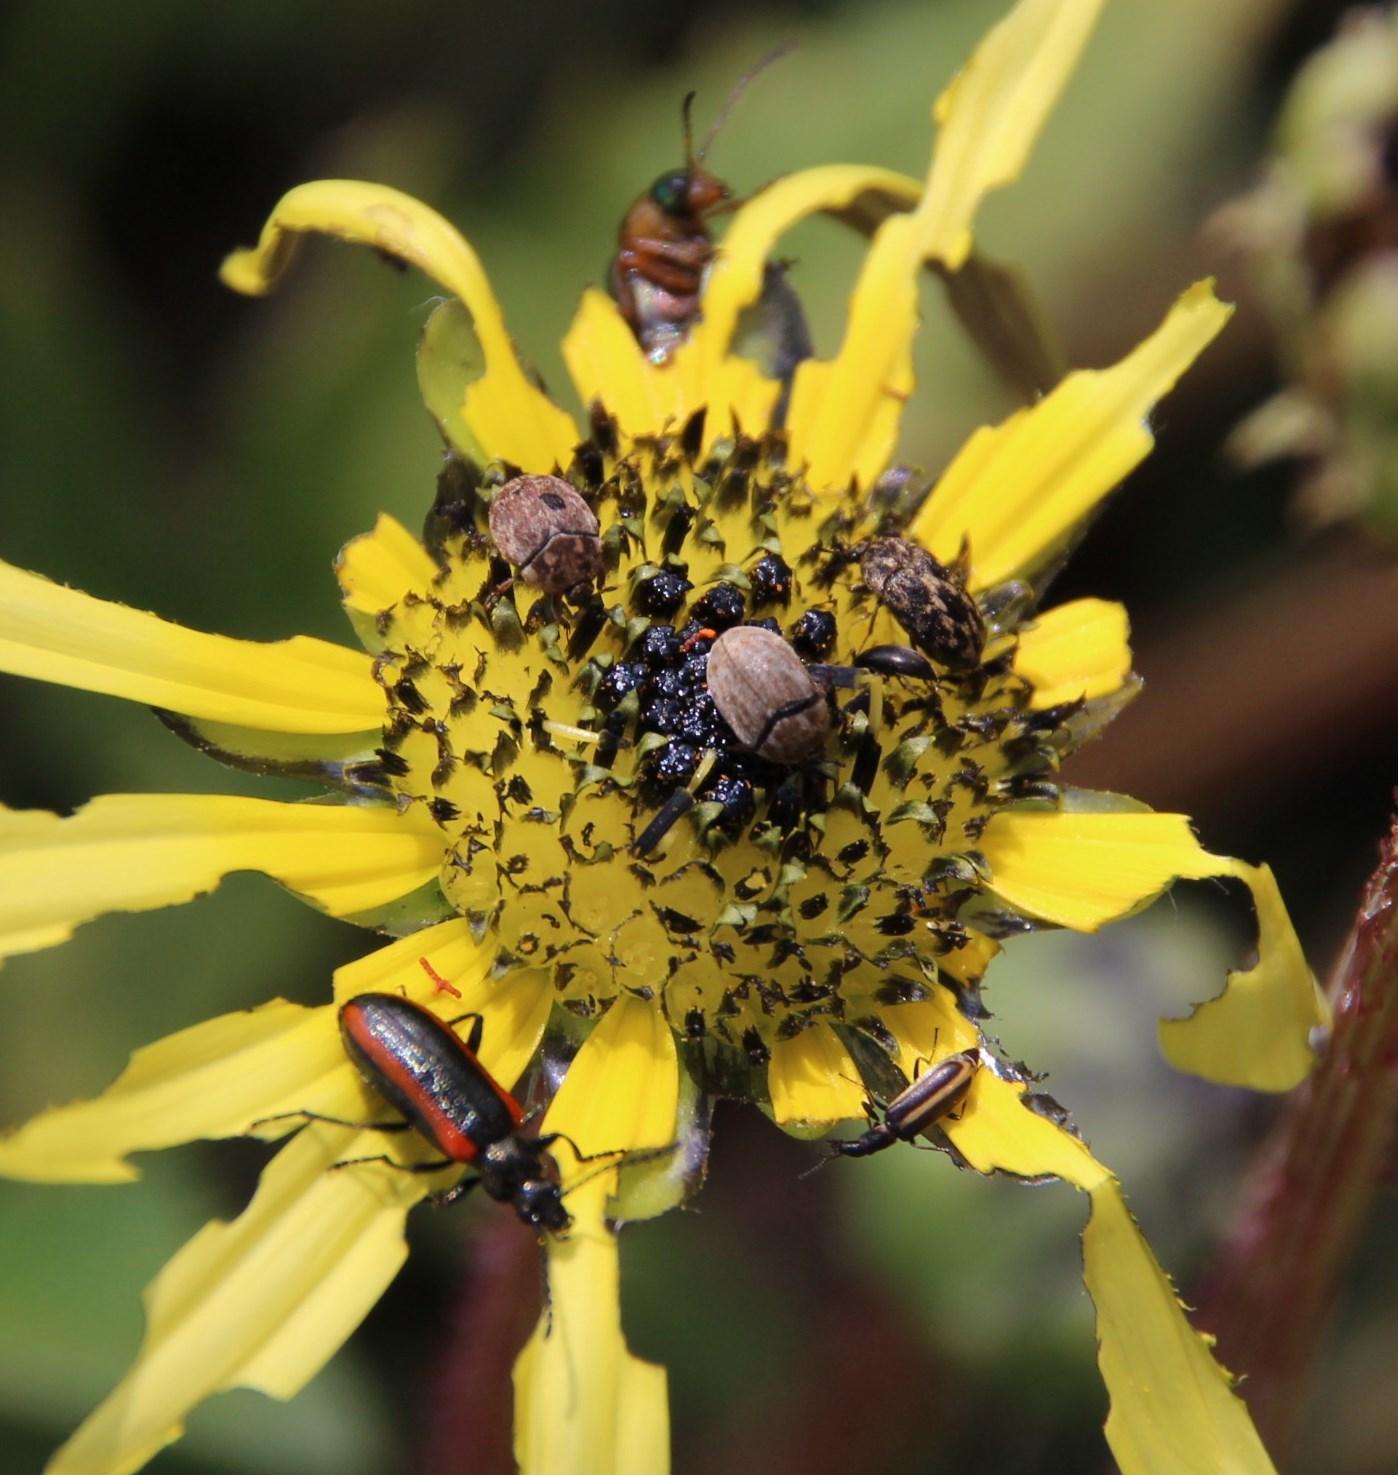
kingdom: Plantae
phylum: Tracheophyta
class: Magnoliopsida
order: Asterales
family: Asteraceae
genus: Arctotheca
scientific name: Arctotheca calendula
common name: Capeweed
